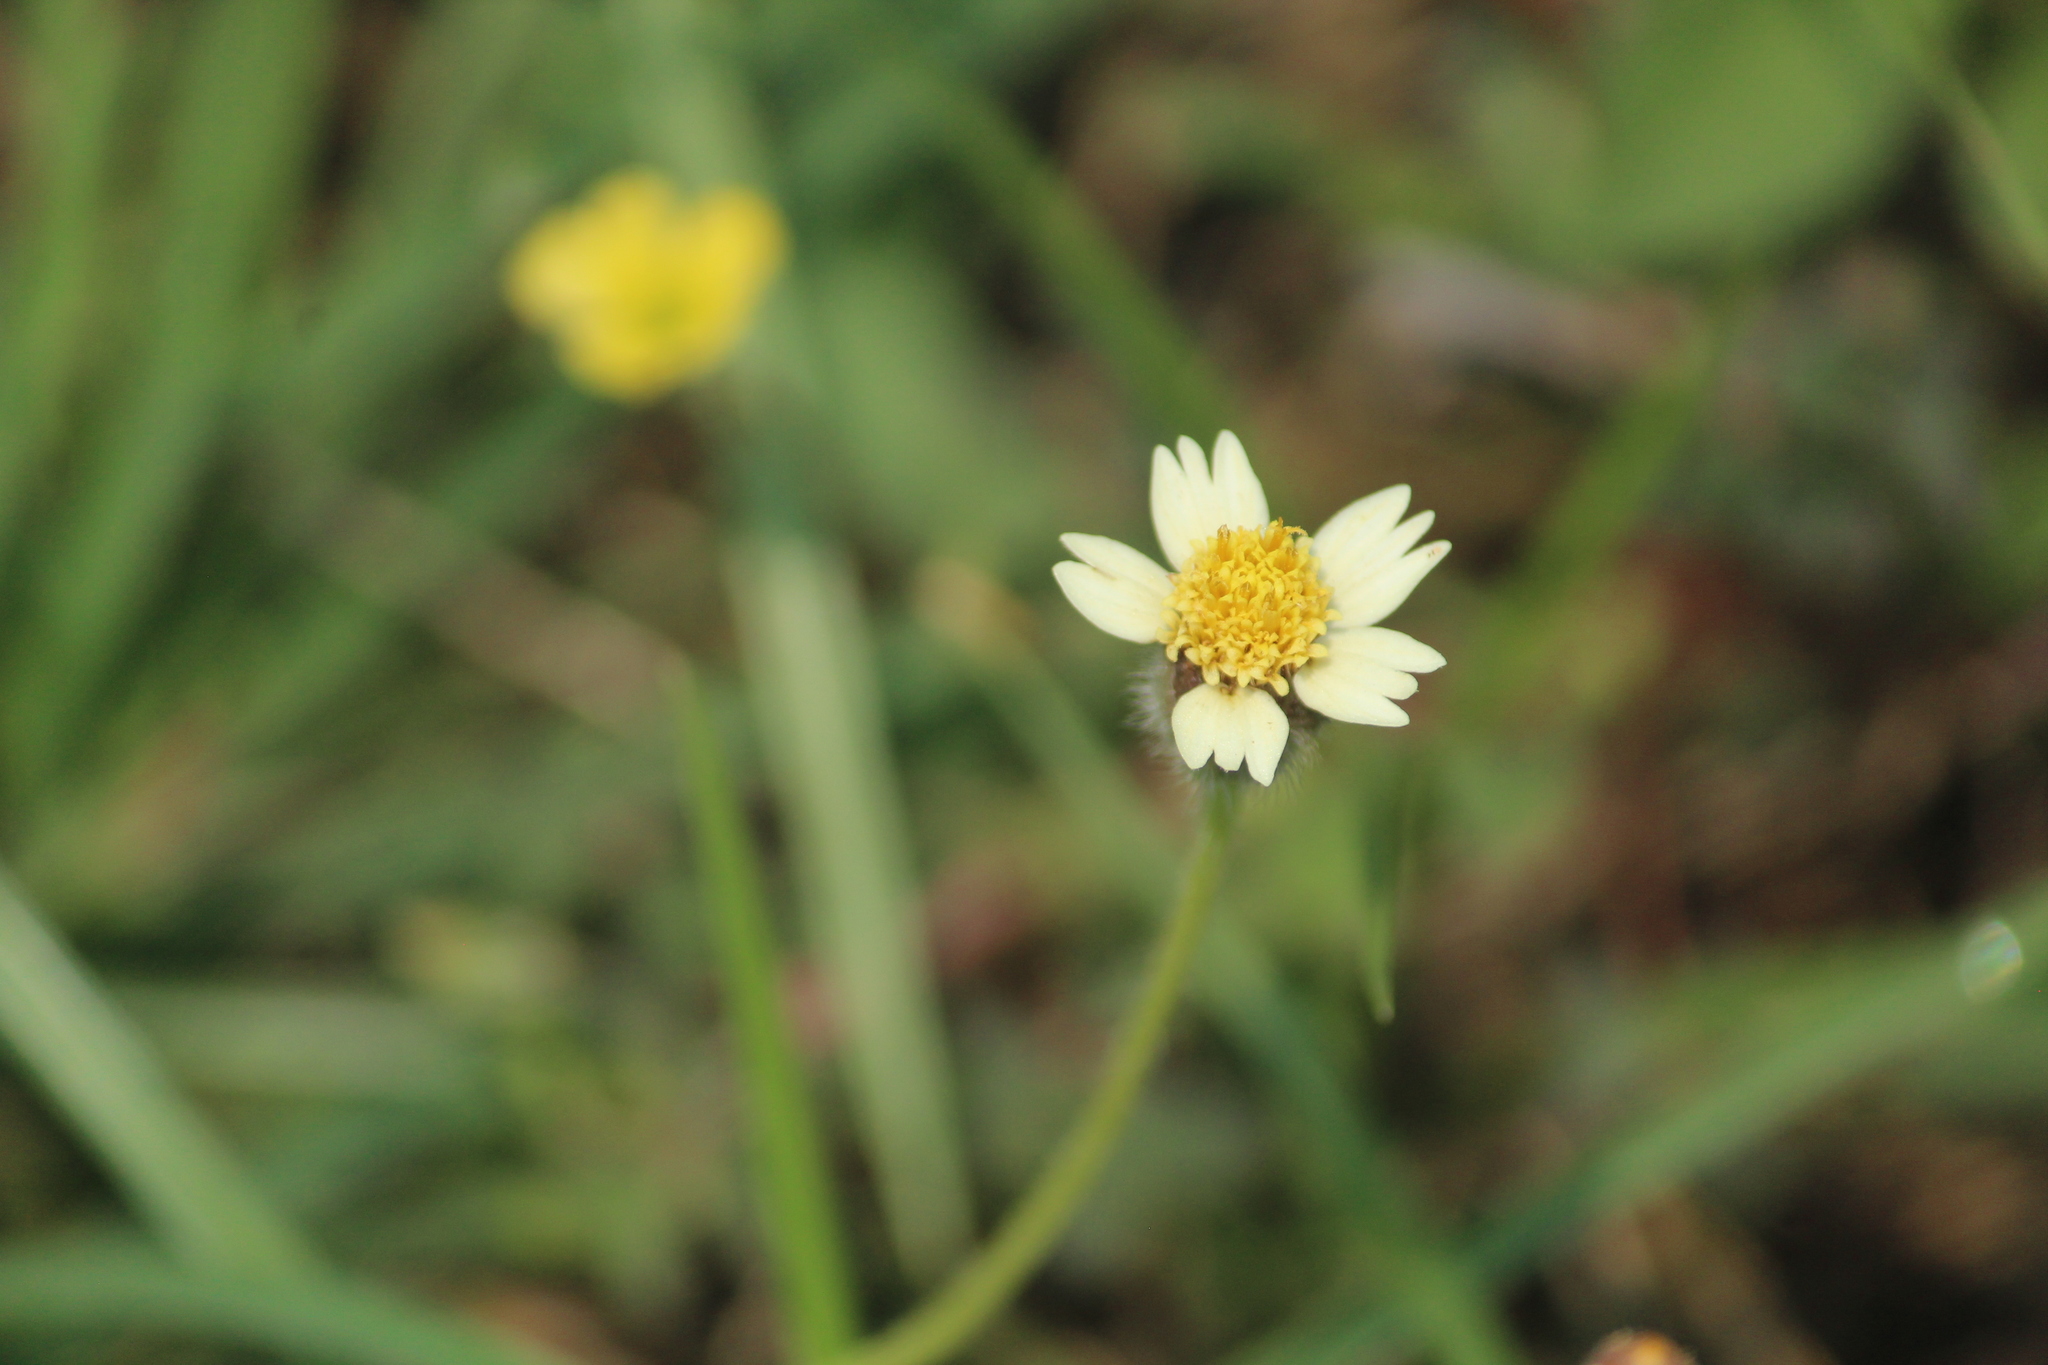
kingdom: Plantae
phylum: Tracheophyta
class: Magnoliopsida
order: Asterales
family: Asteraceae
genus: Tridax
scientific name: Tridax procumbens
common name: Coatbuttons
